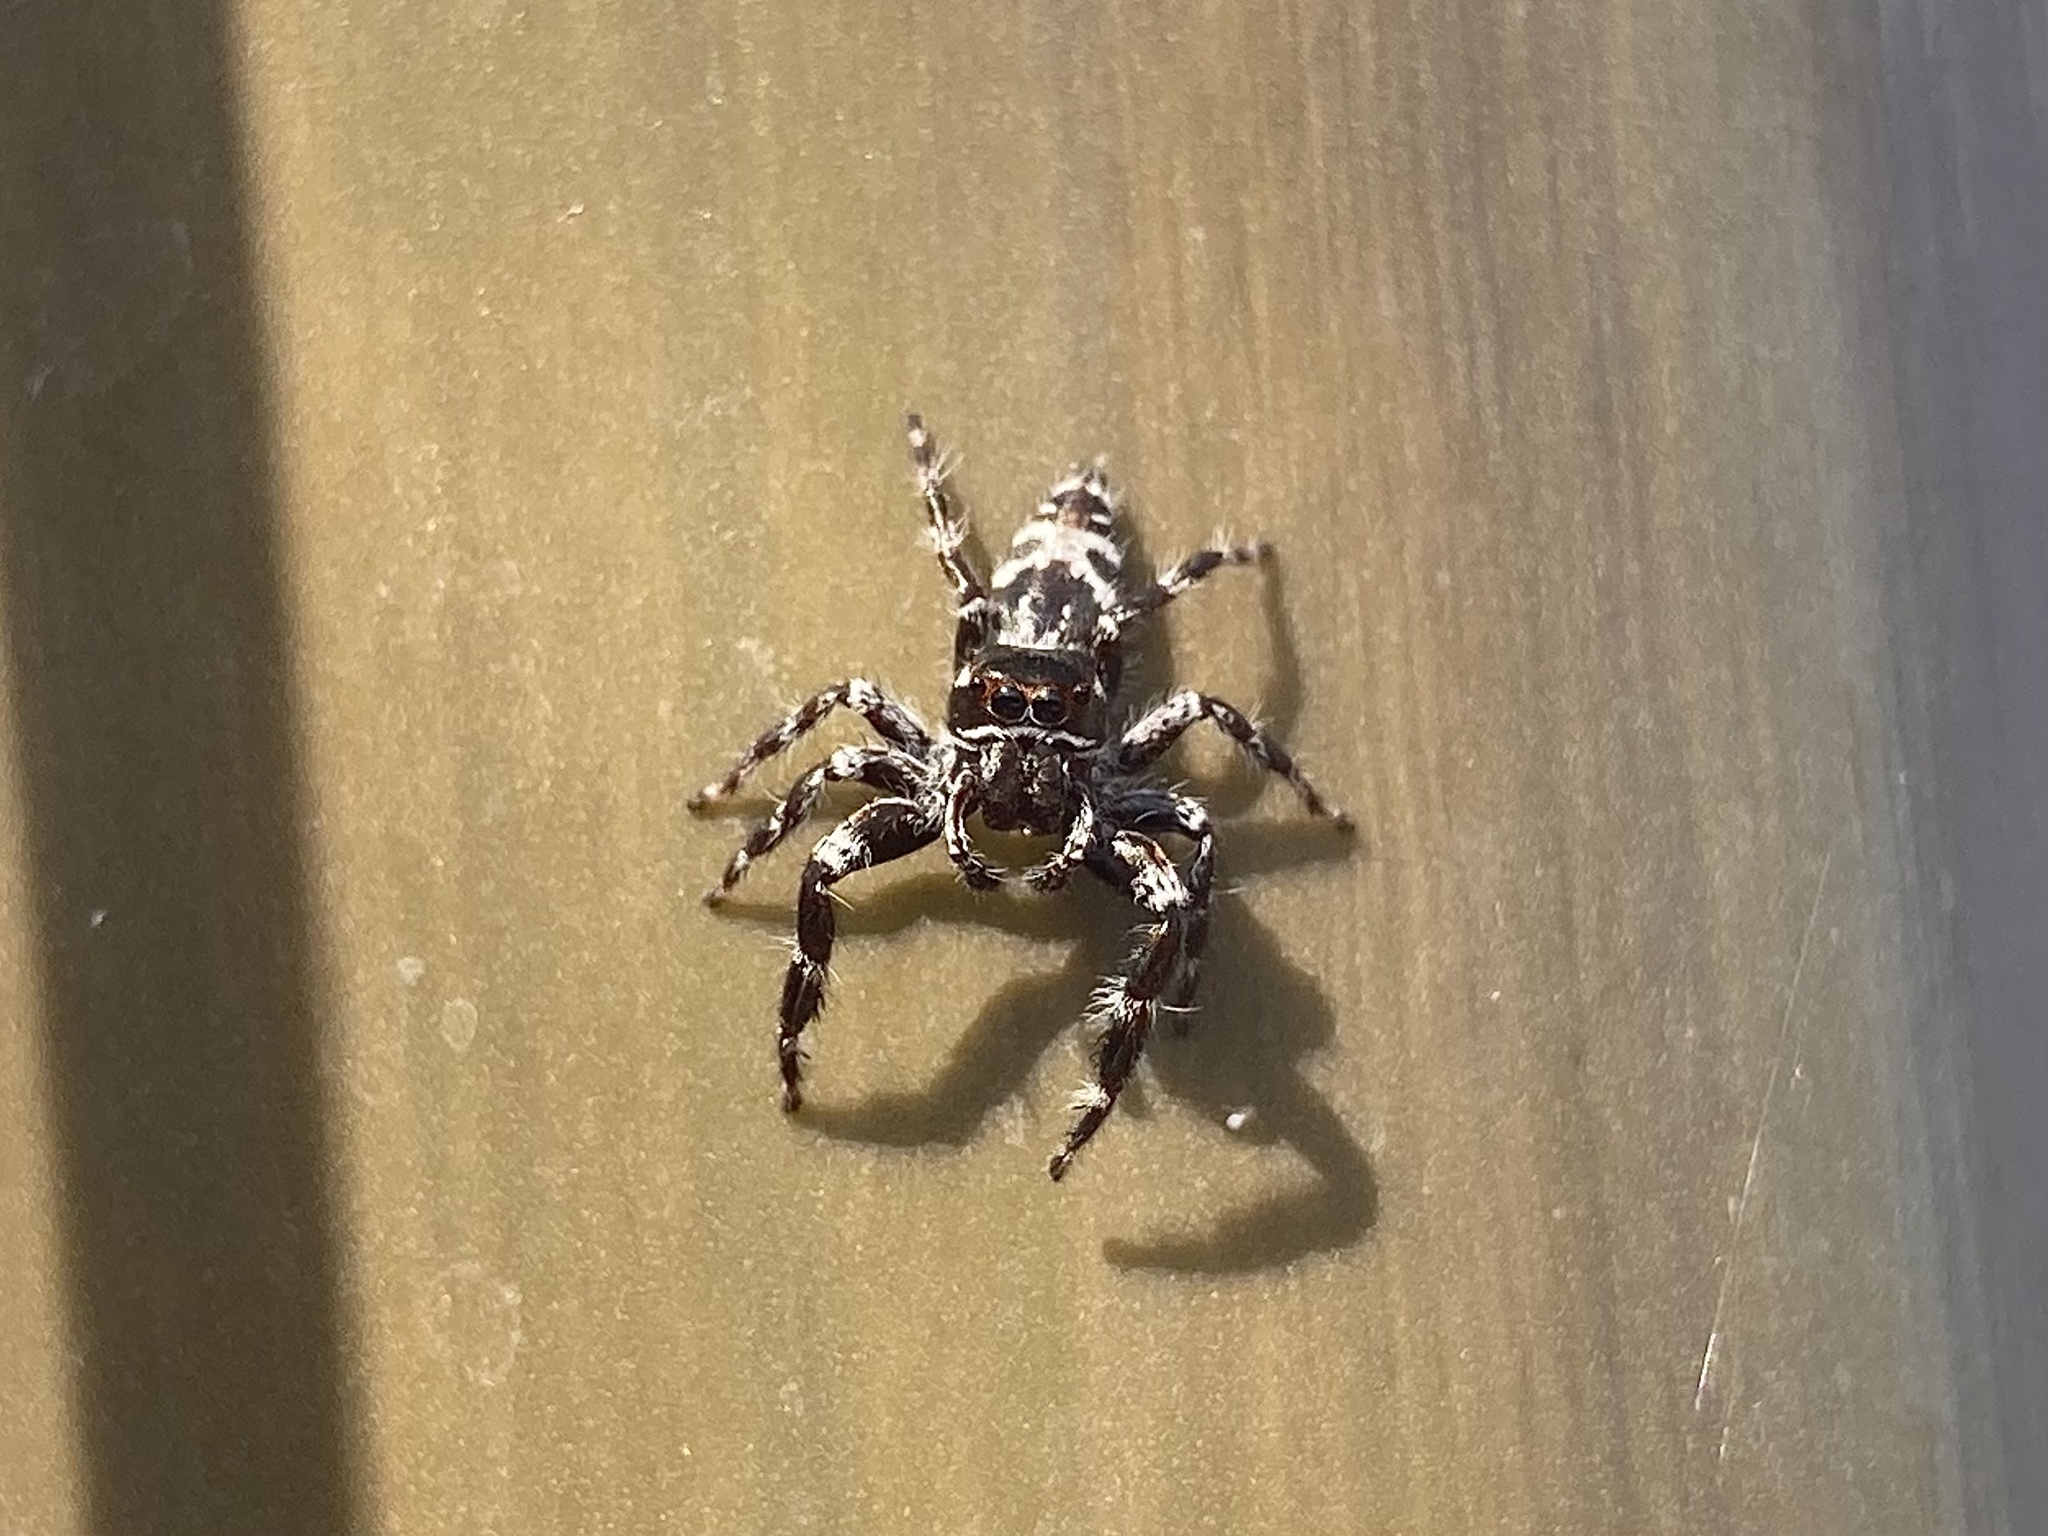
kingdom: Animalia
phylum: Arthropoda
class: Arachnida
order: Araneae
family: Salticidae
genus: Sandalodes
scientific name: Sandalodes superbus
